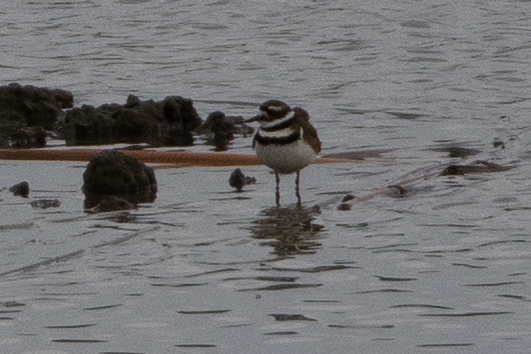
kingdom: Animalia
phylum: Chordata
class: Aves
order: Charadriiformes
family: Charadriidae
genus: Charadrius
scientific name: Charadrius vociferus
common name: Killdeer
